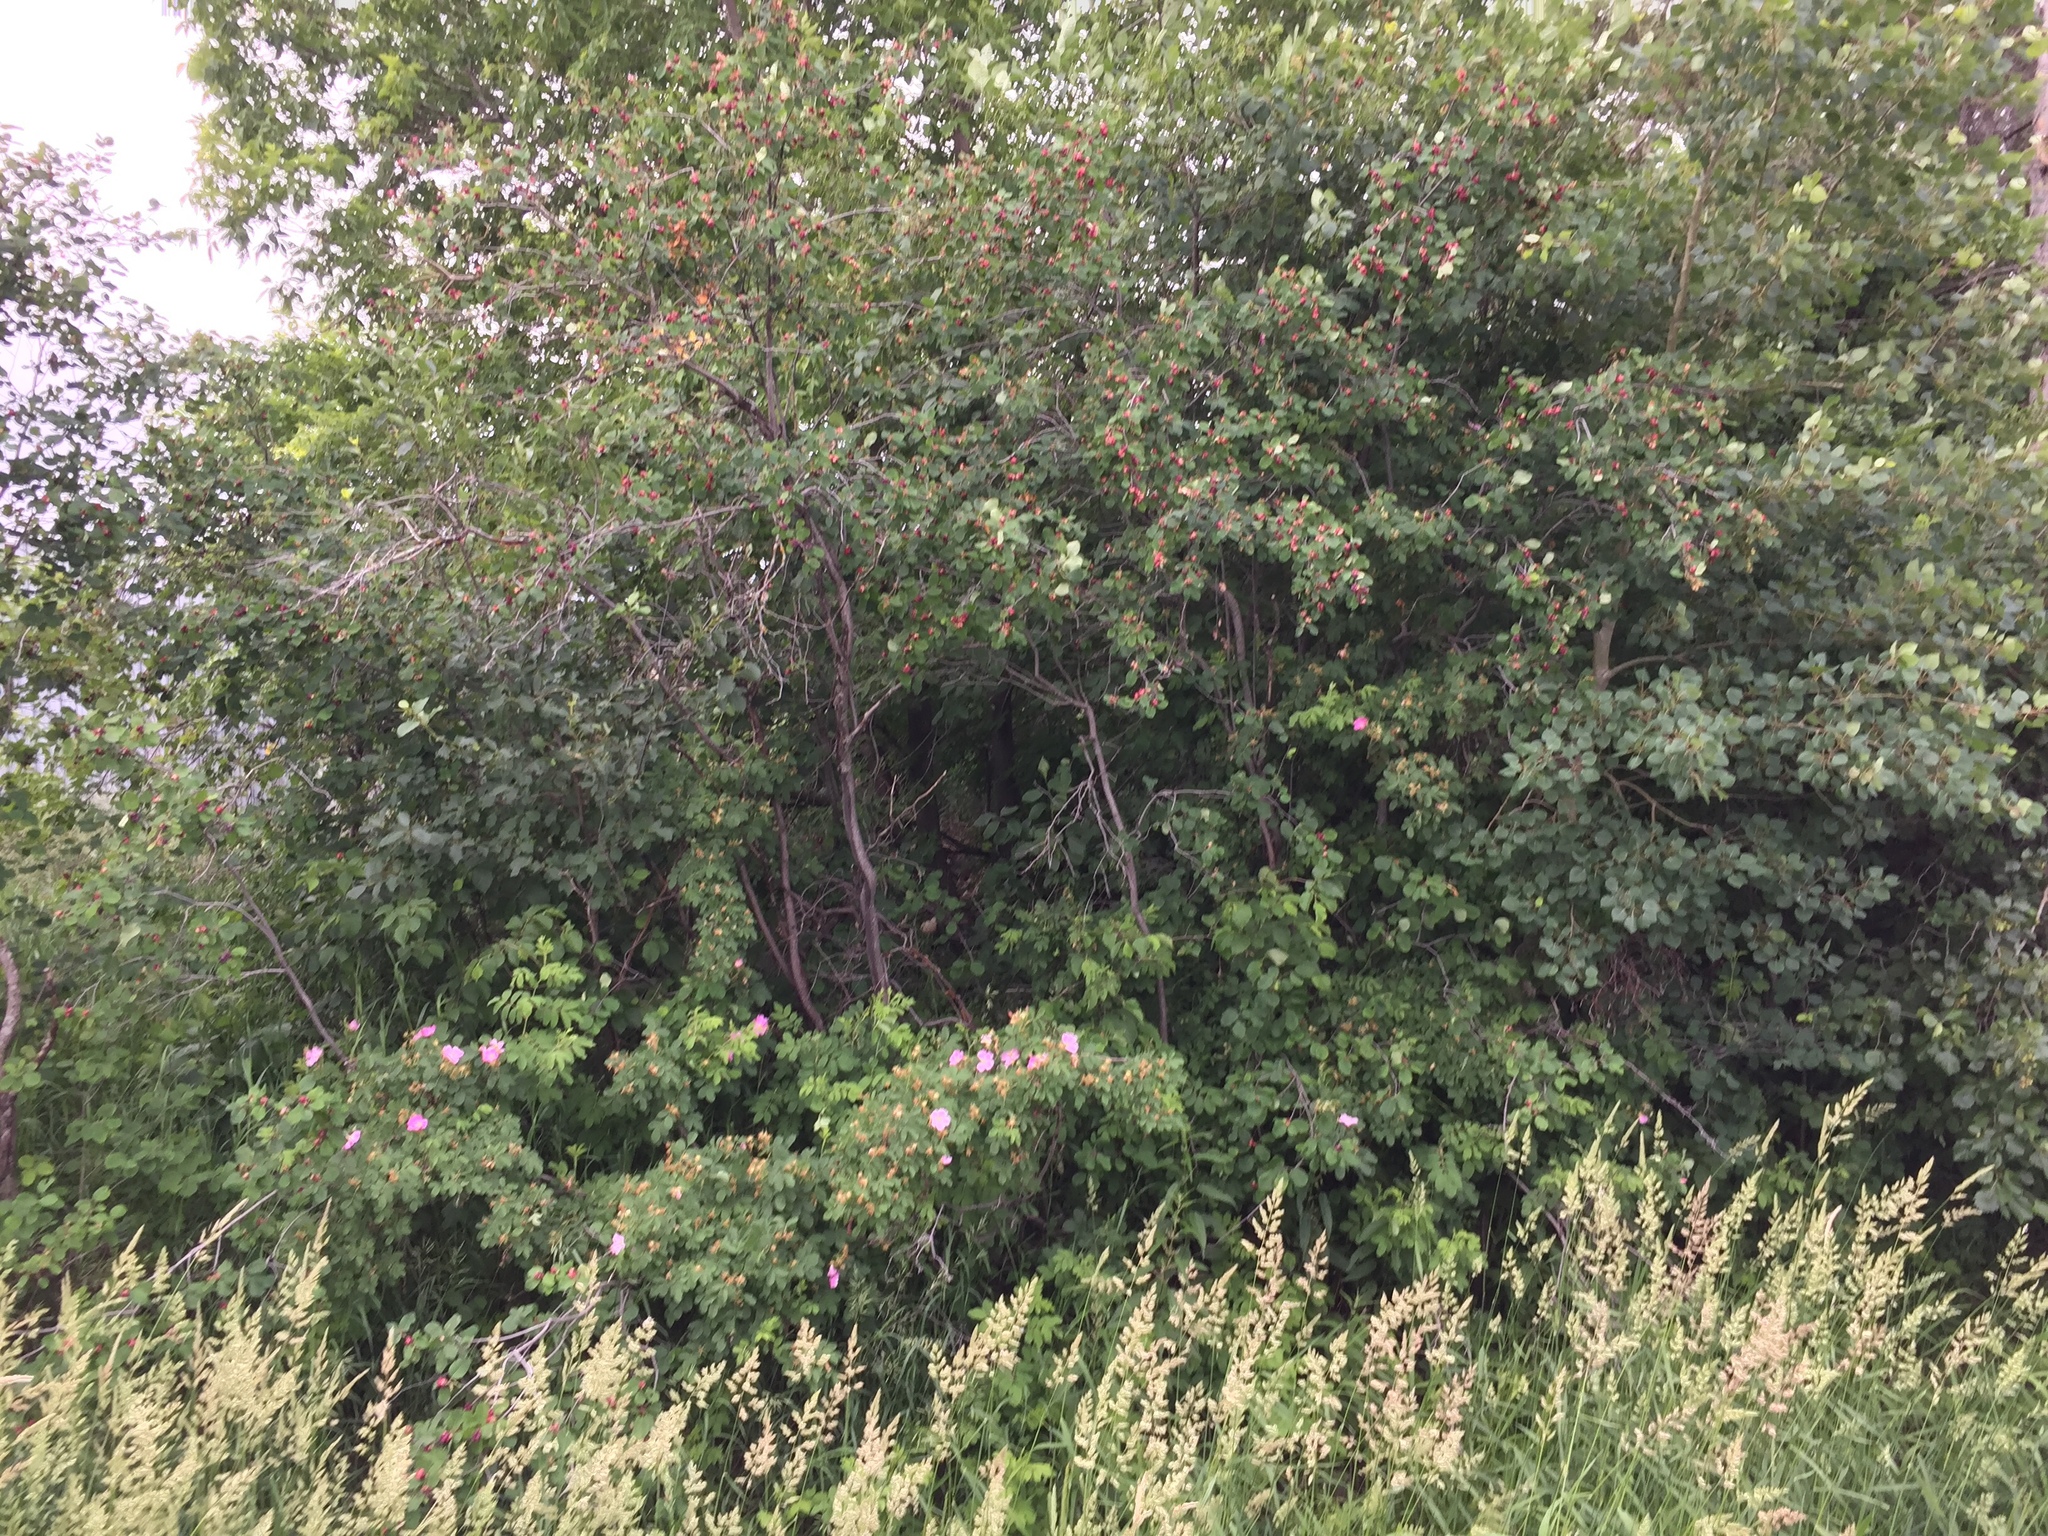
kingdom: Plantae
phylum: Tracheophyta
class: Magnoliopsida
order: Rosales
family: Rosaceae
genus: Amelanchier
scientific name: Amelanchier alnifolia
